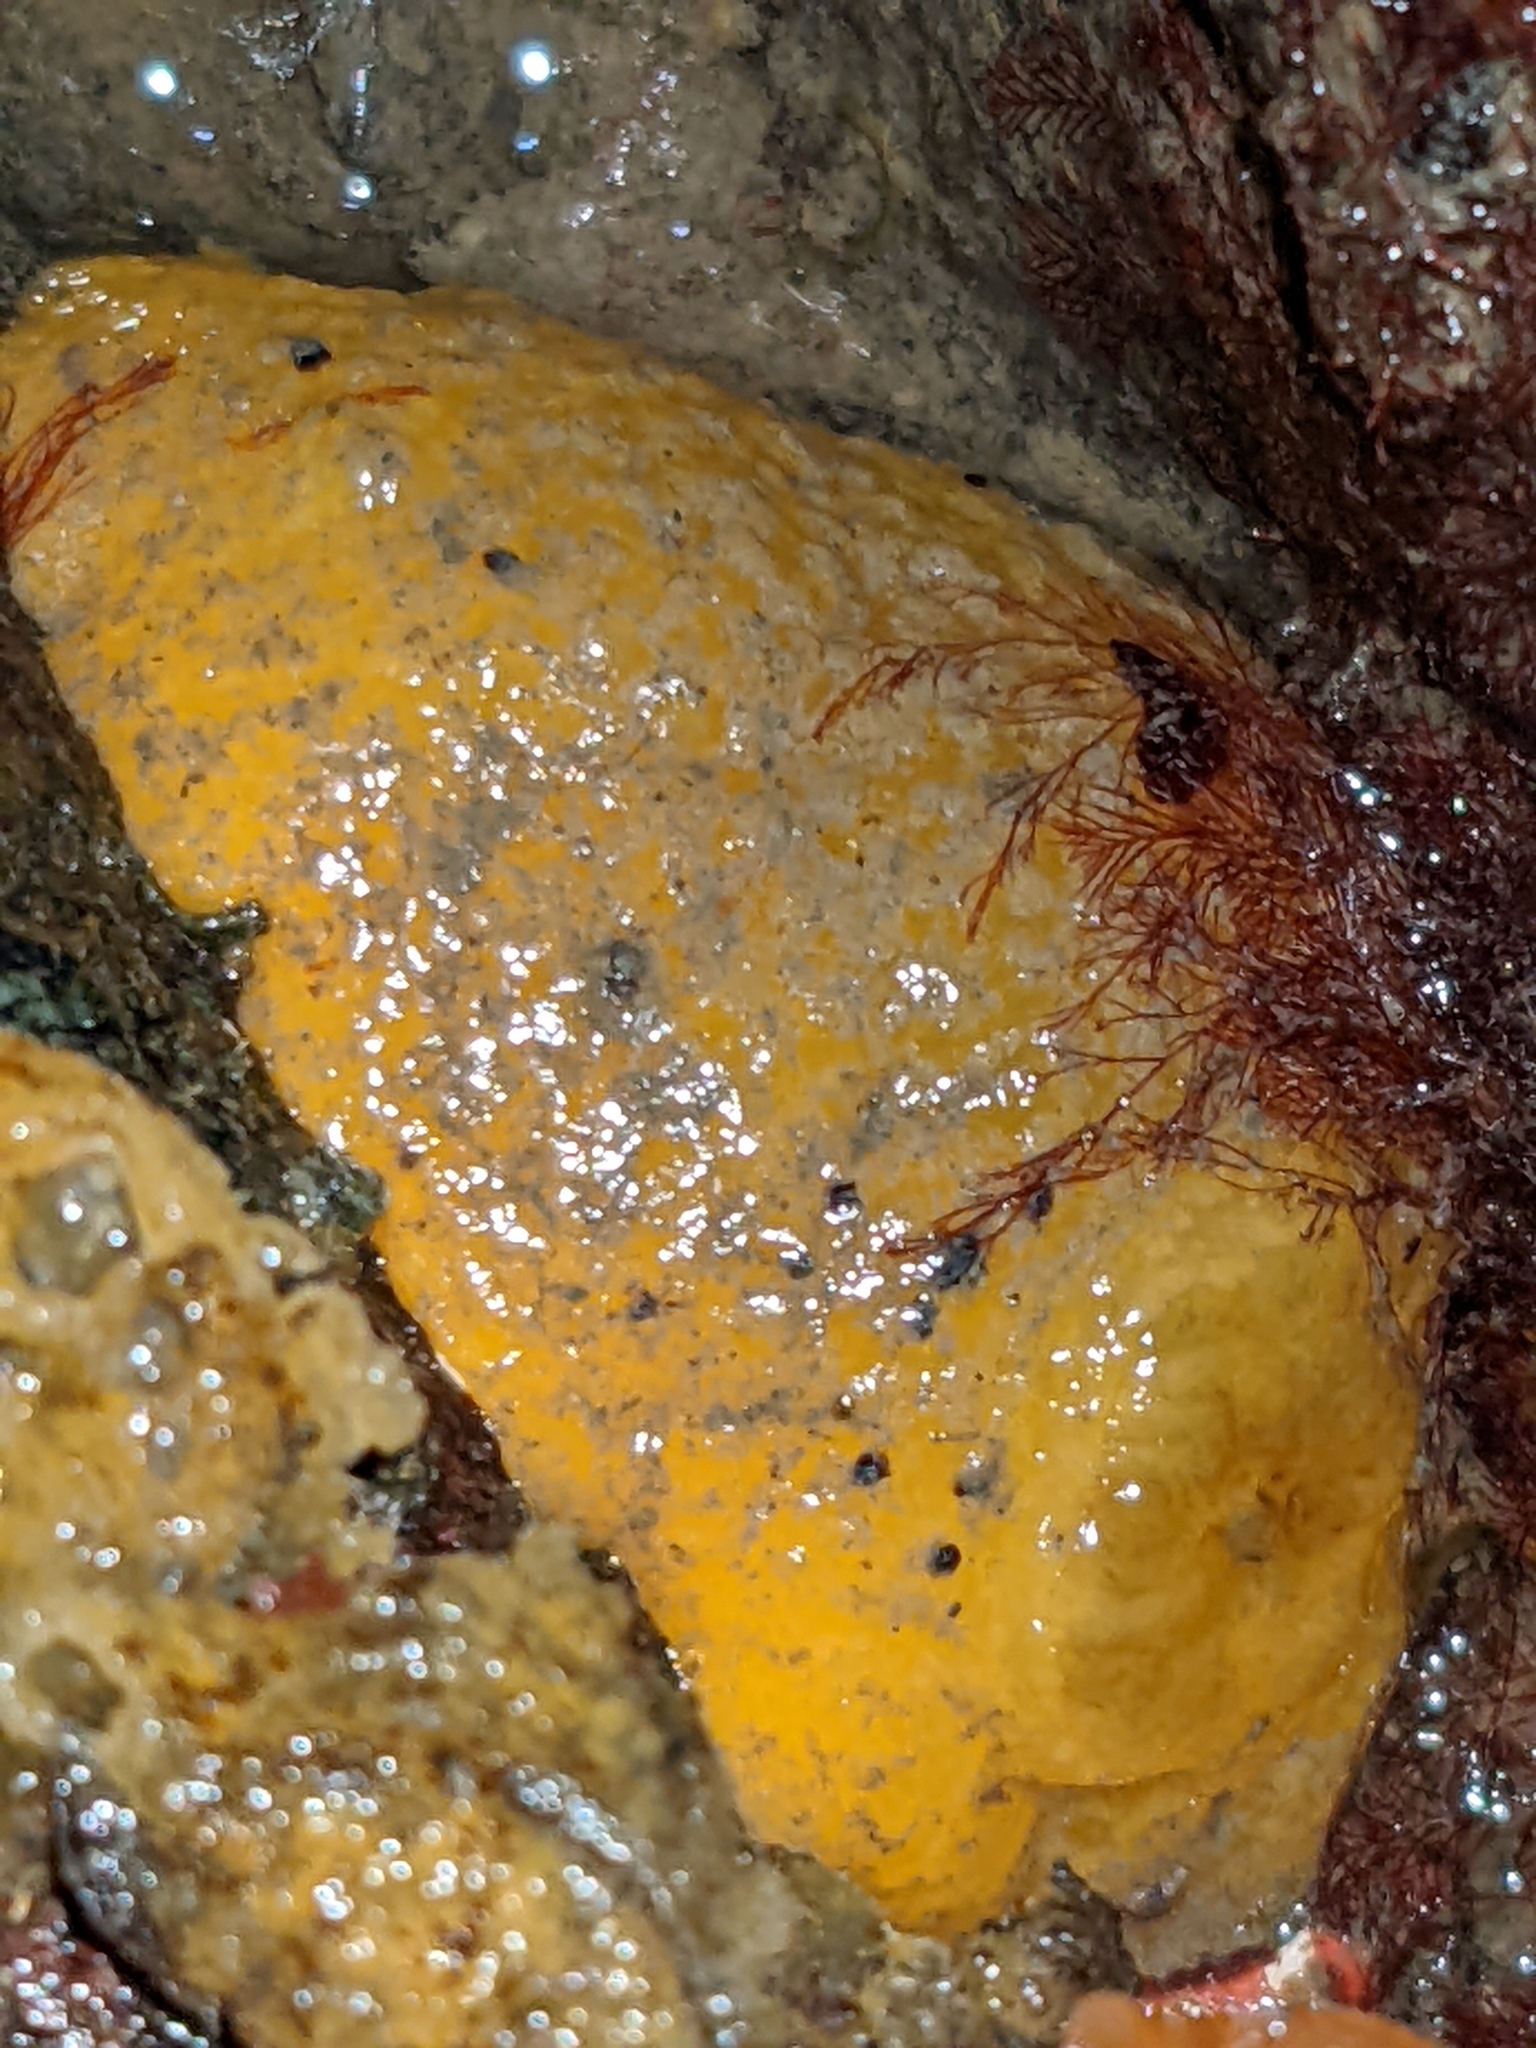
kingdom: Animalia
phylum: Mollusca
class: Gastropoda
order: Nudibranchia
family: Dorididae
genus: Doris
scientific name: Doris montereyensis
